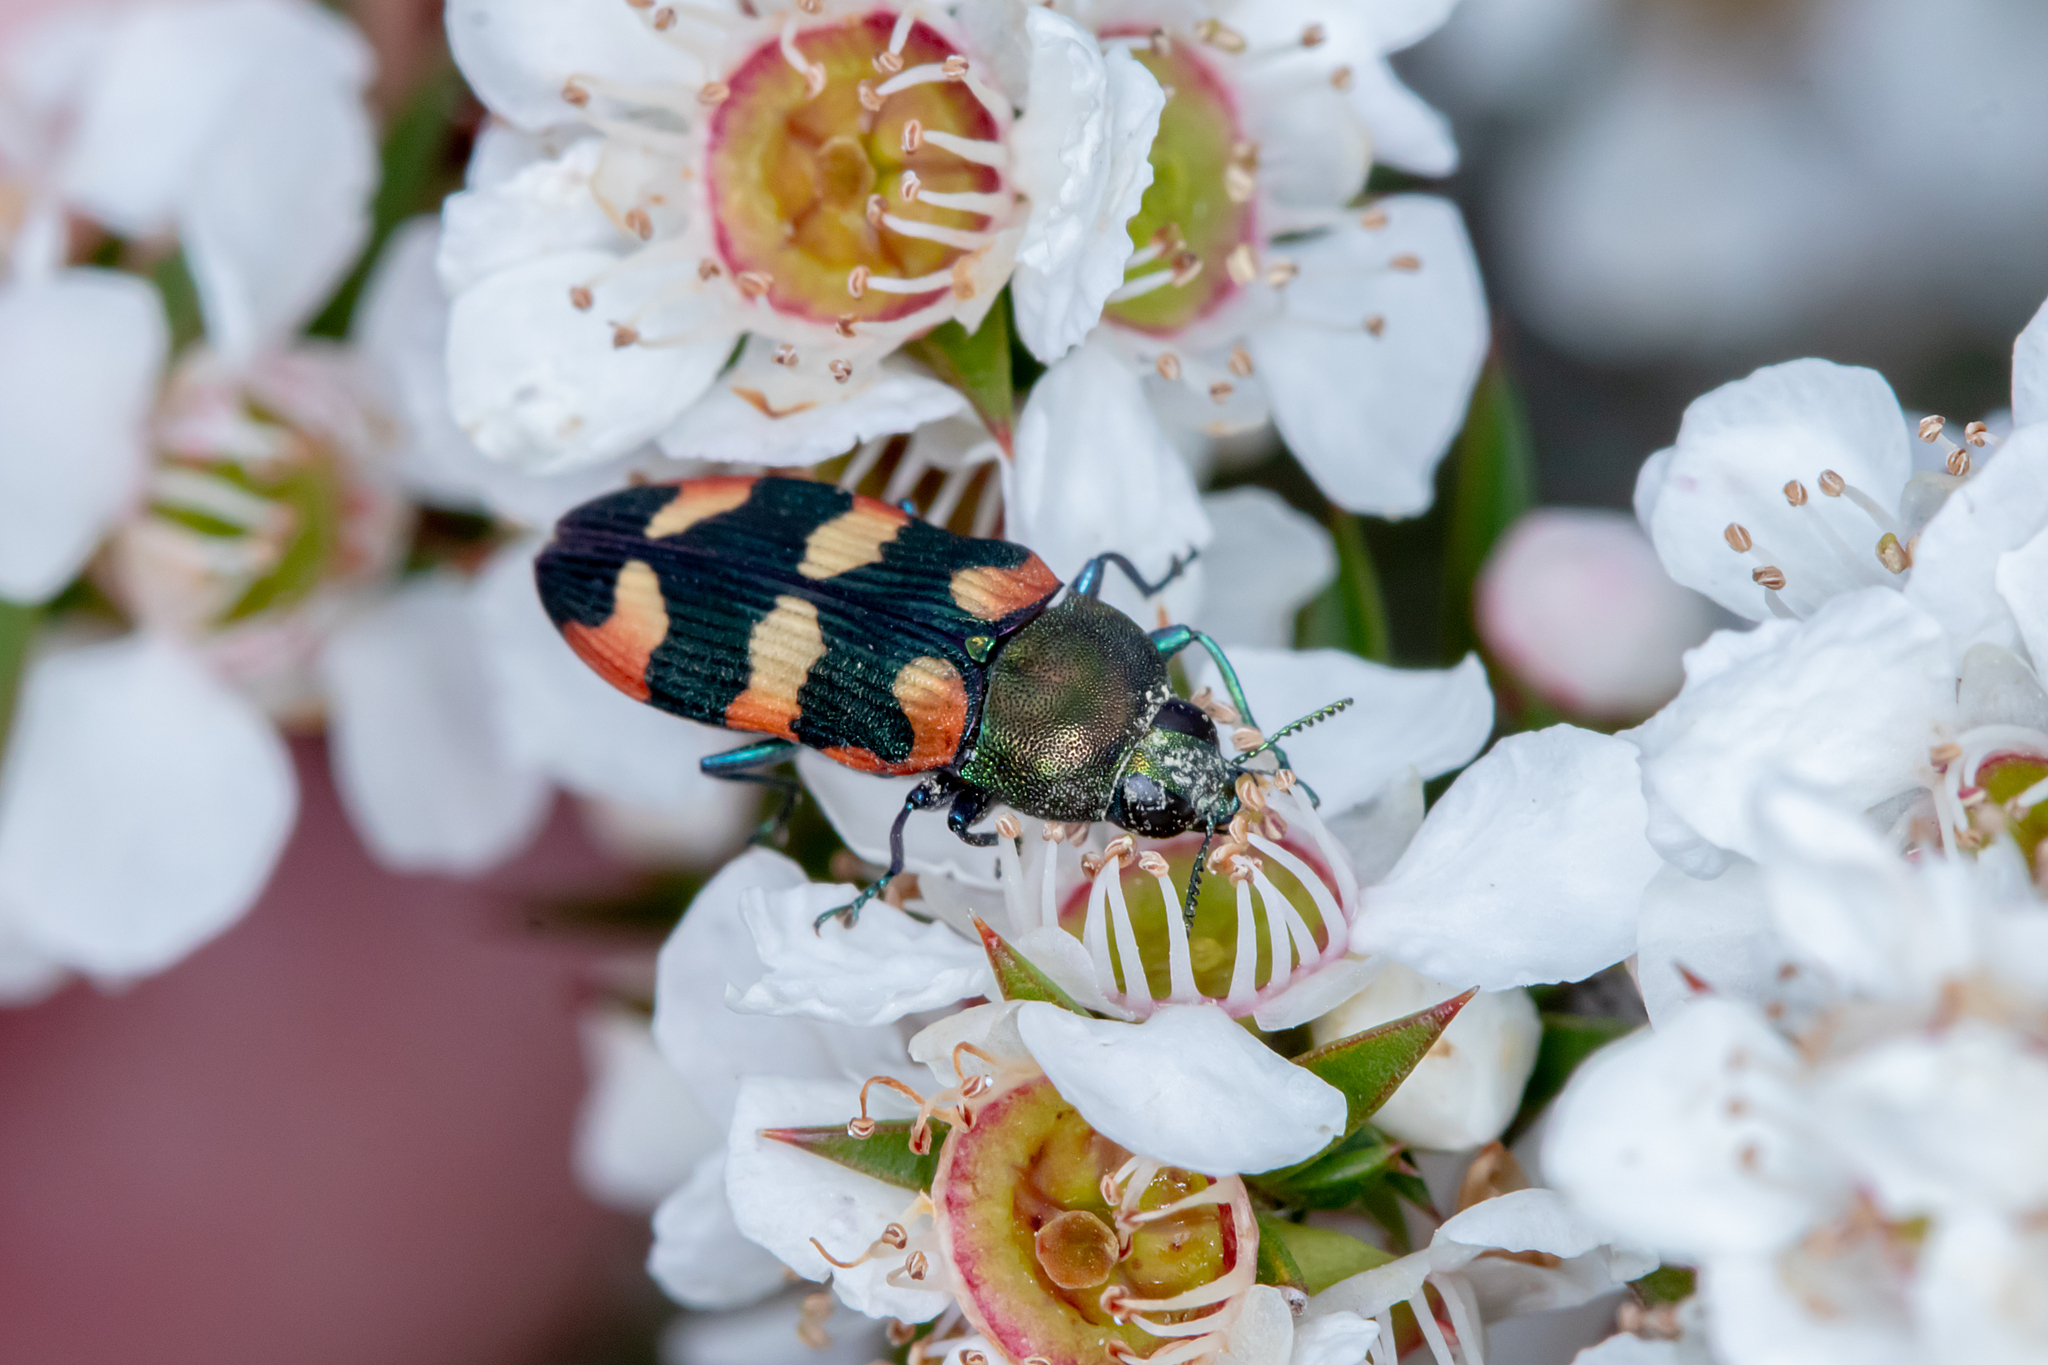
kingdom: Animalia
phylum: Arthropoda
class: Insecta
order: Coleoptera
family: Buprestidae
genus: Castiarina
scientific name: Castiarina sexplagiata
